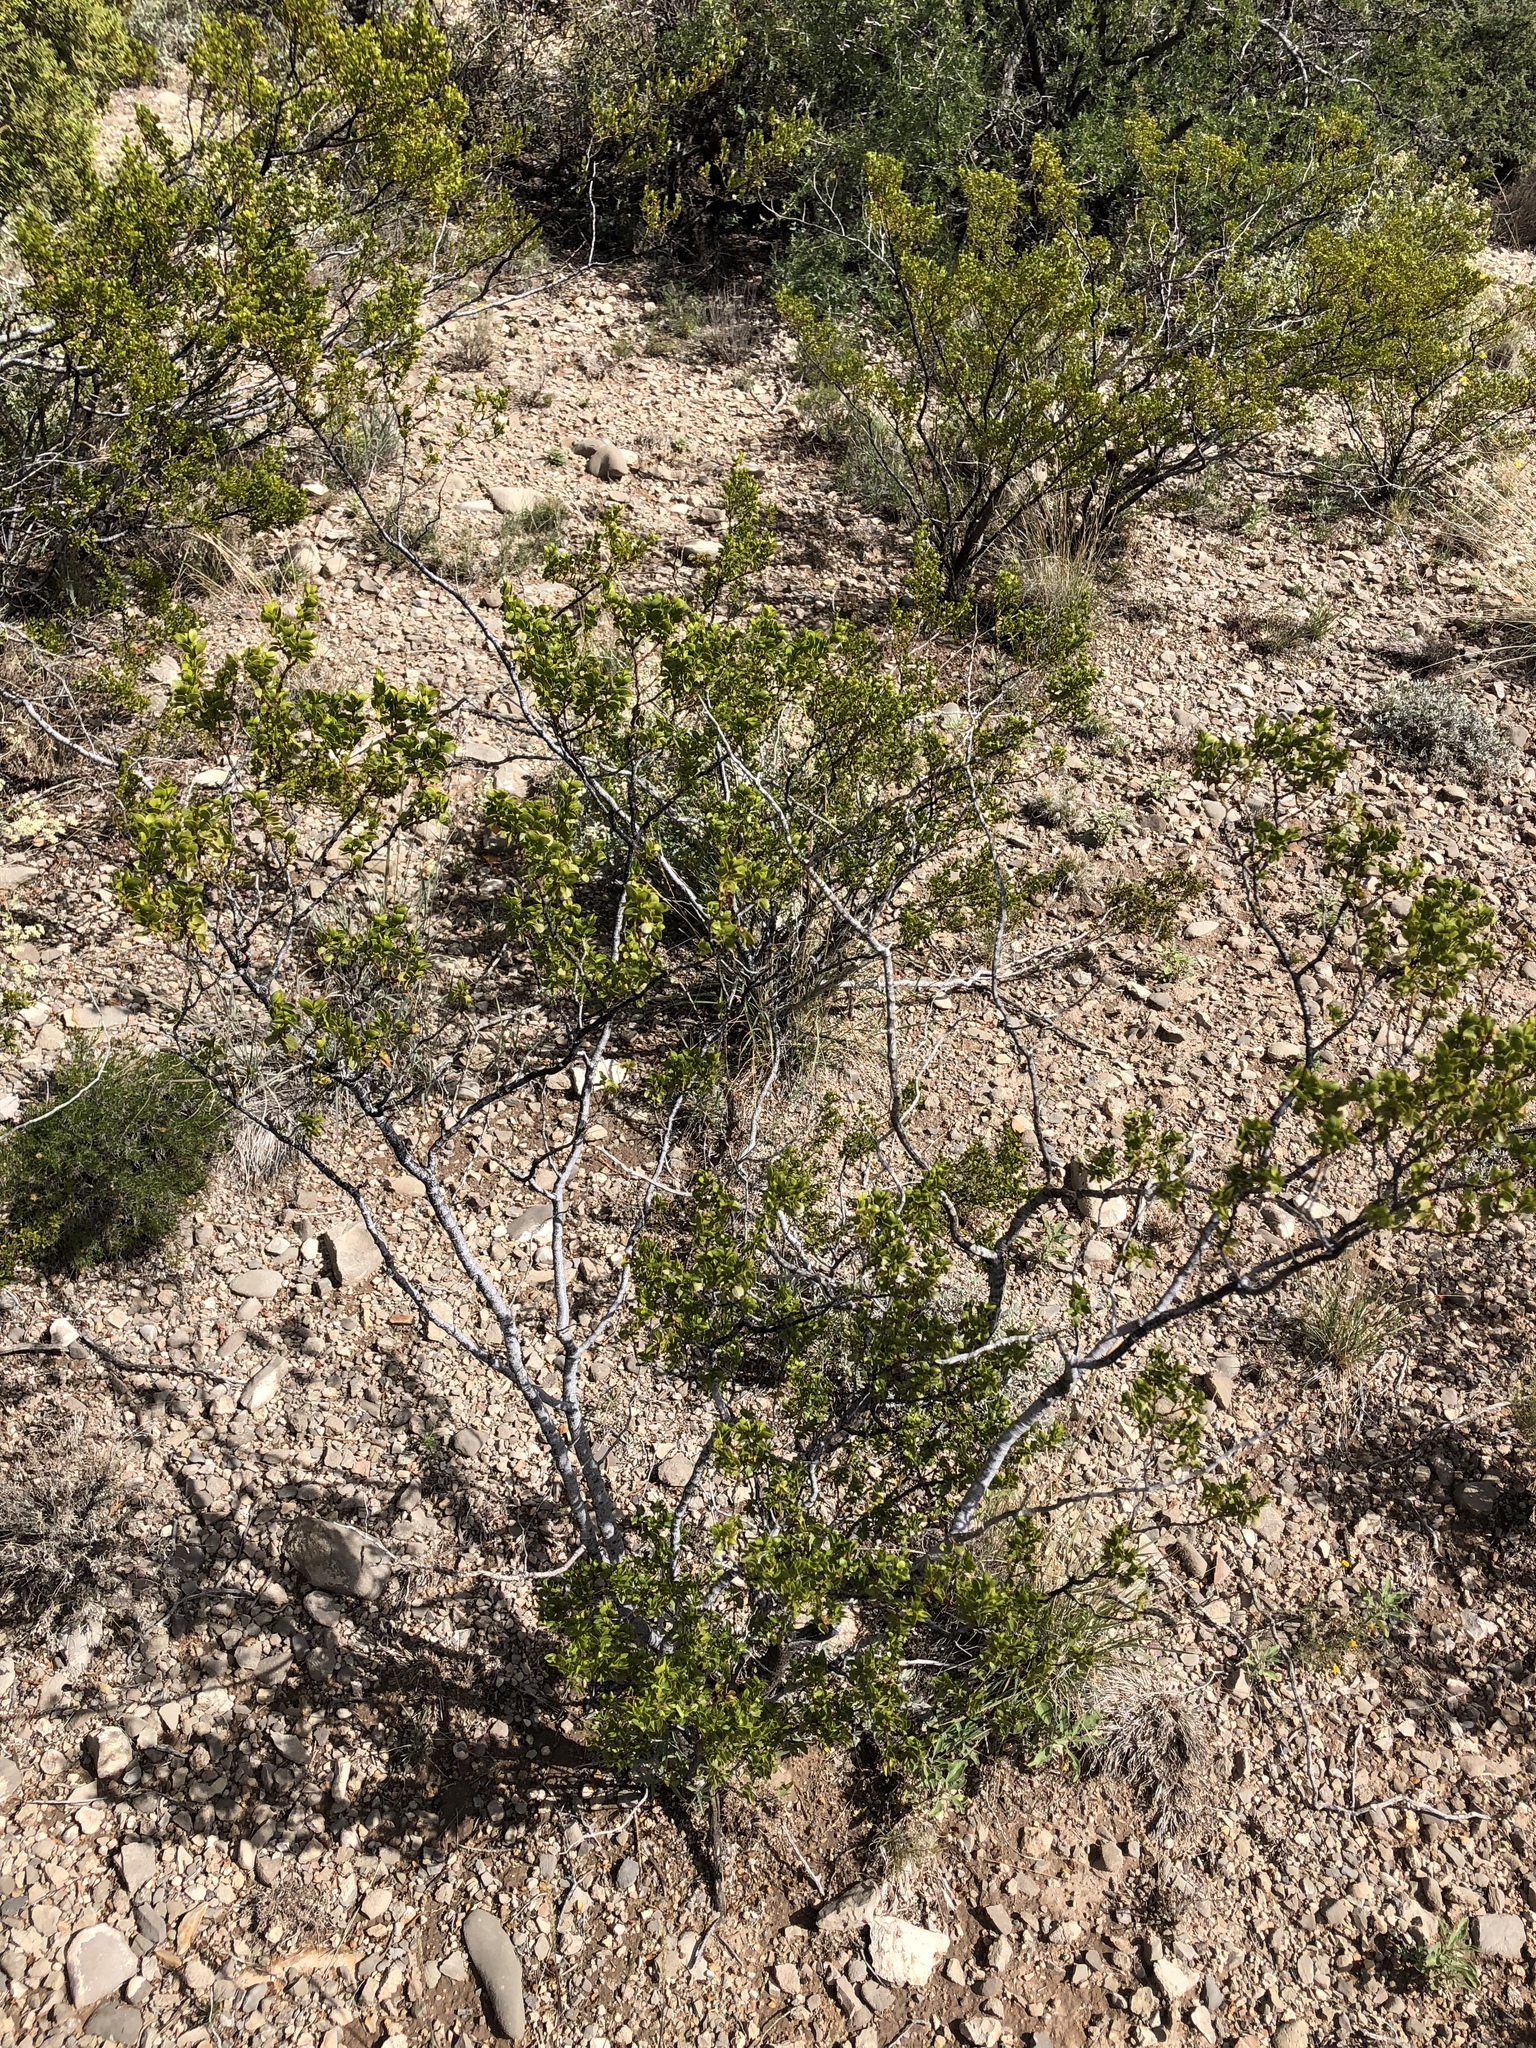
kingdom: Plantae
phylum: Tracheophyta
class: Magnoliopsida
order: Zygophyllales
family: Zygophyllaceae
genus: Larrea
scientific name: Larrea tridentata
